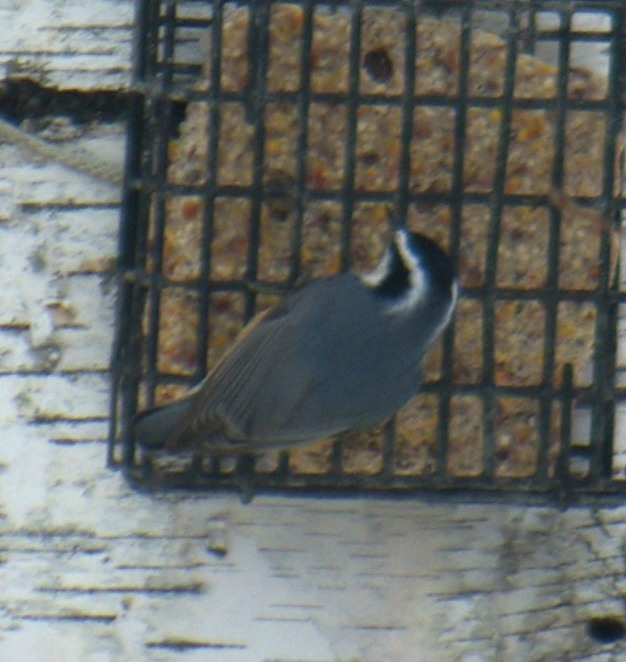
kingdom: Animalia
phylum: Chordata
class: Aves
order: Passeriformes
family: Sittidae
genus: Sitta
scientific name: Sitta canadensis
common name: Red-breasted nuthatch
